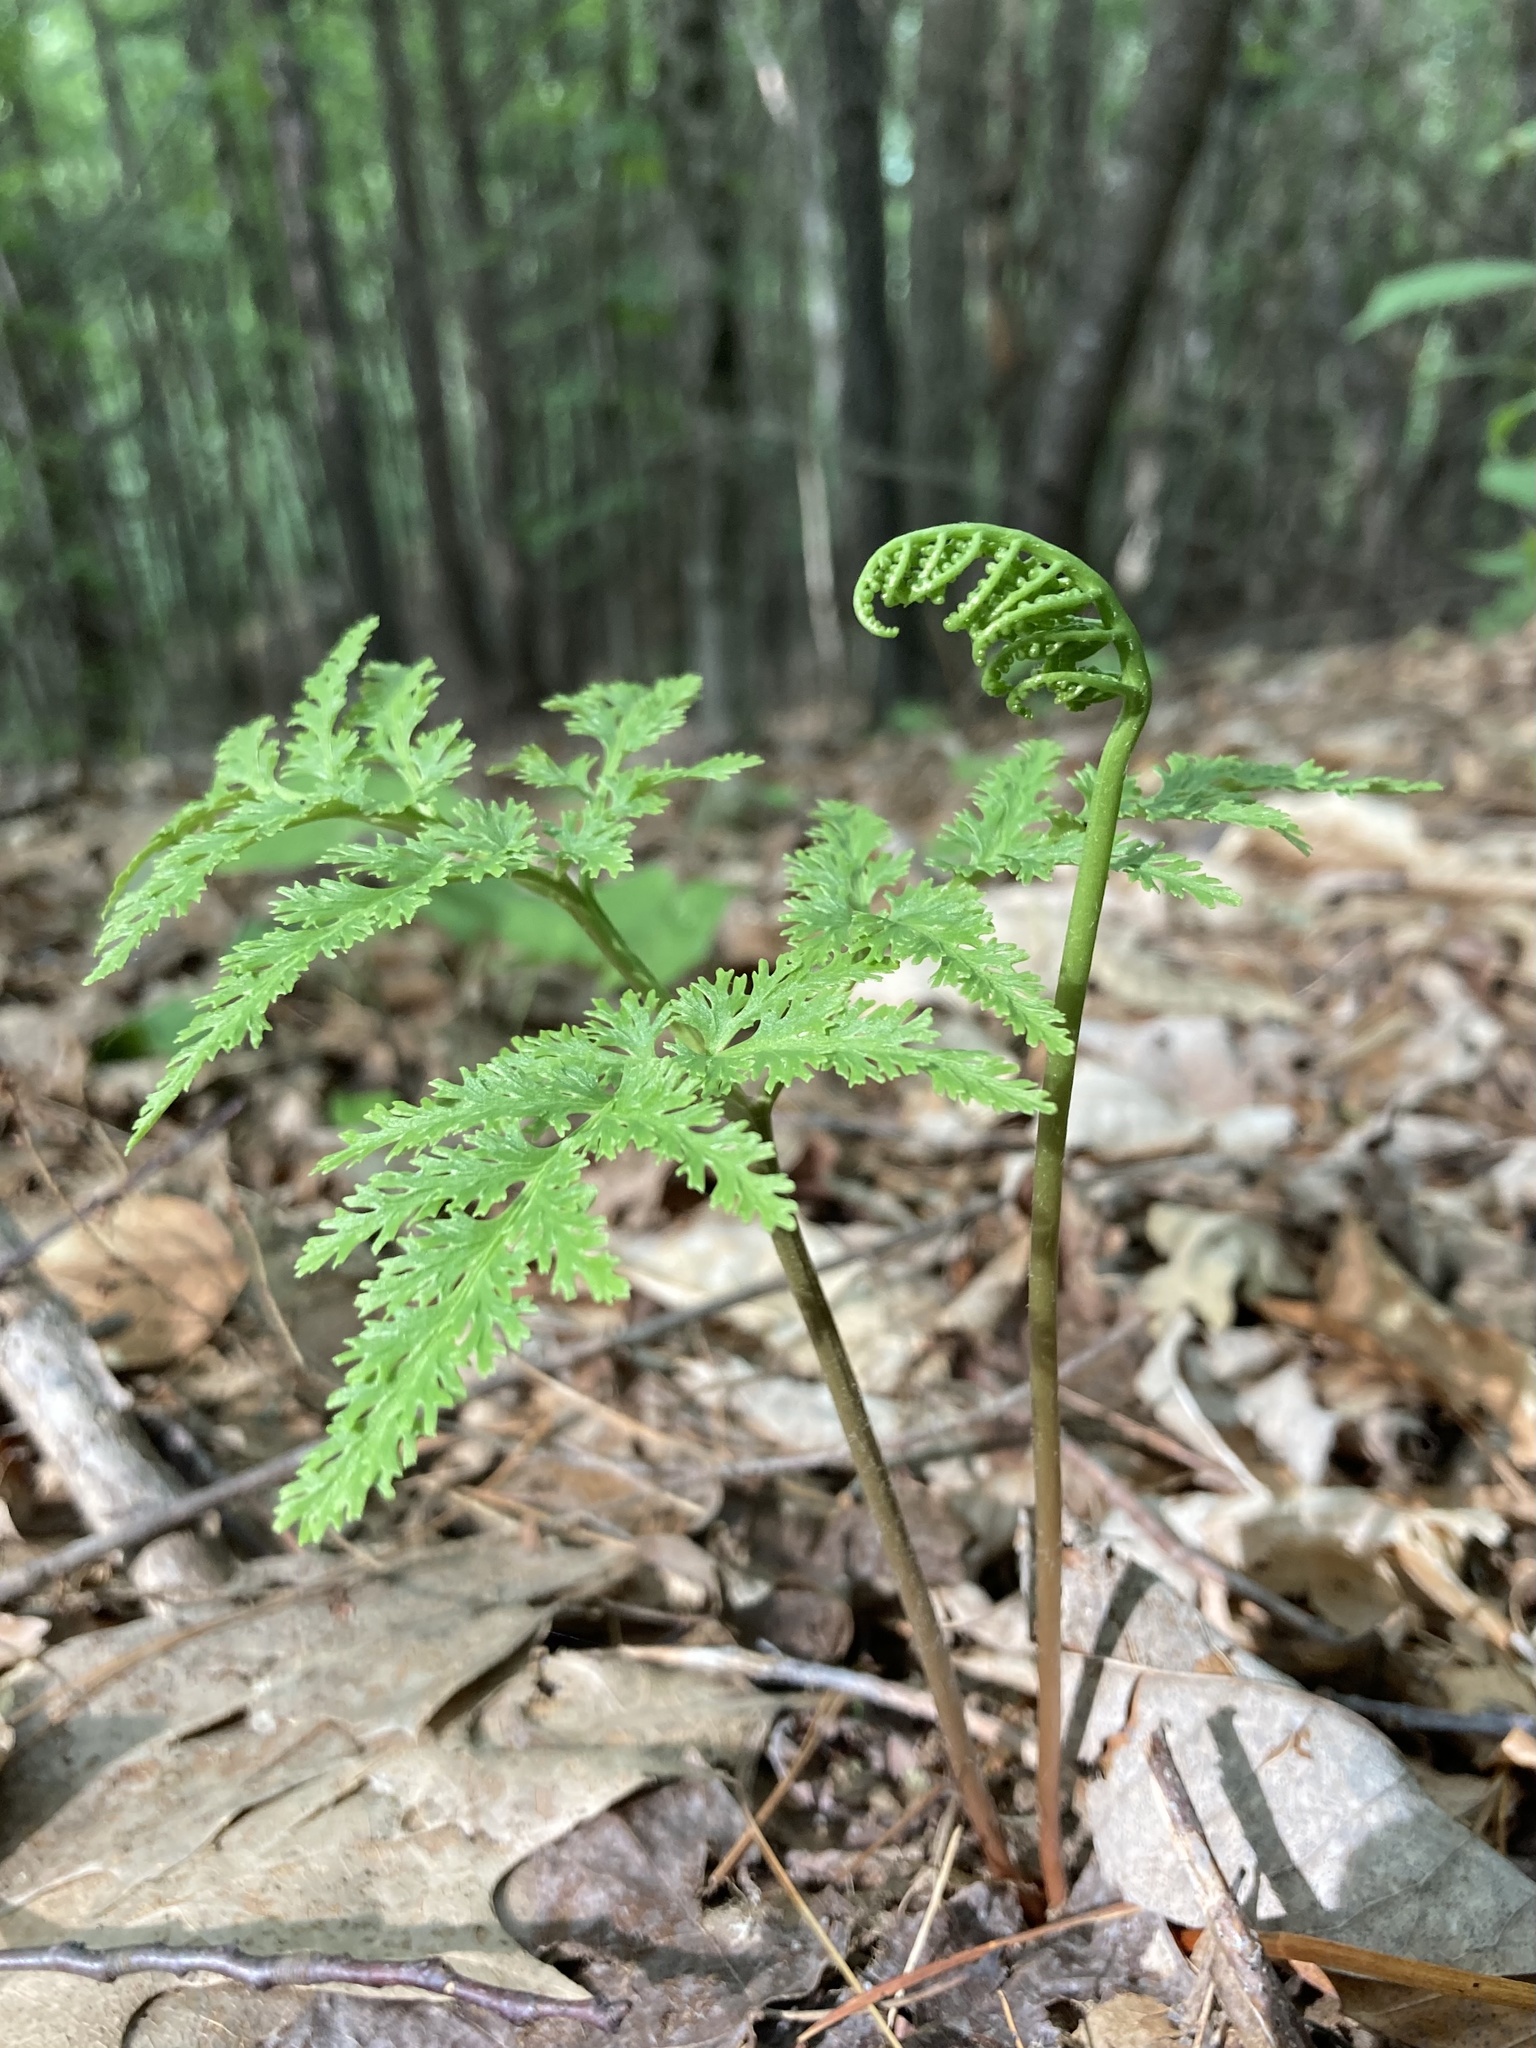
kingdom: Plantae
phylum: Tracheophyta
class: Polypodiopsida
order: Ophioglossales
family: Ophioglossaceae
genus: Sceptridium
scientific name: Sceptridium dissectum
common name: Cut-leaved grapefern
